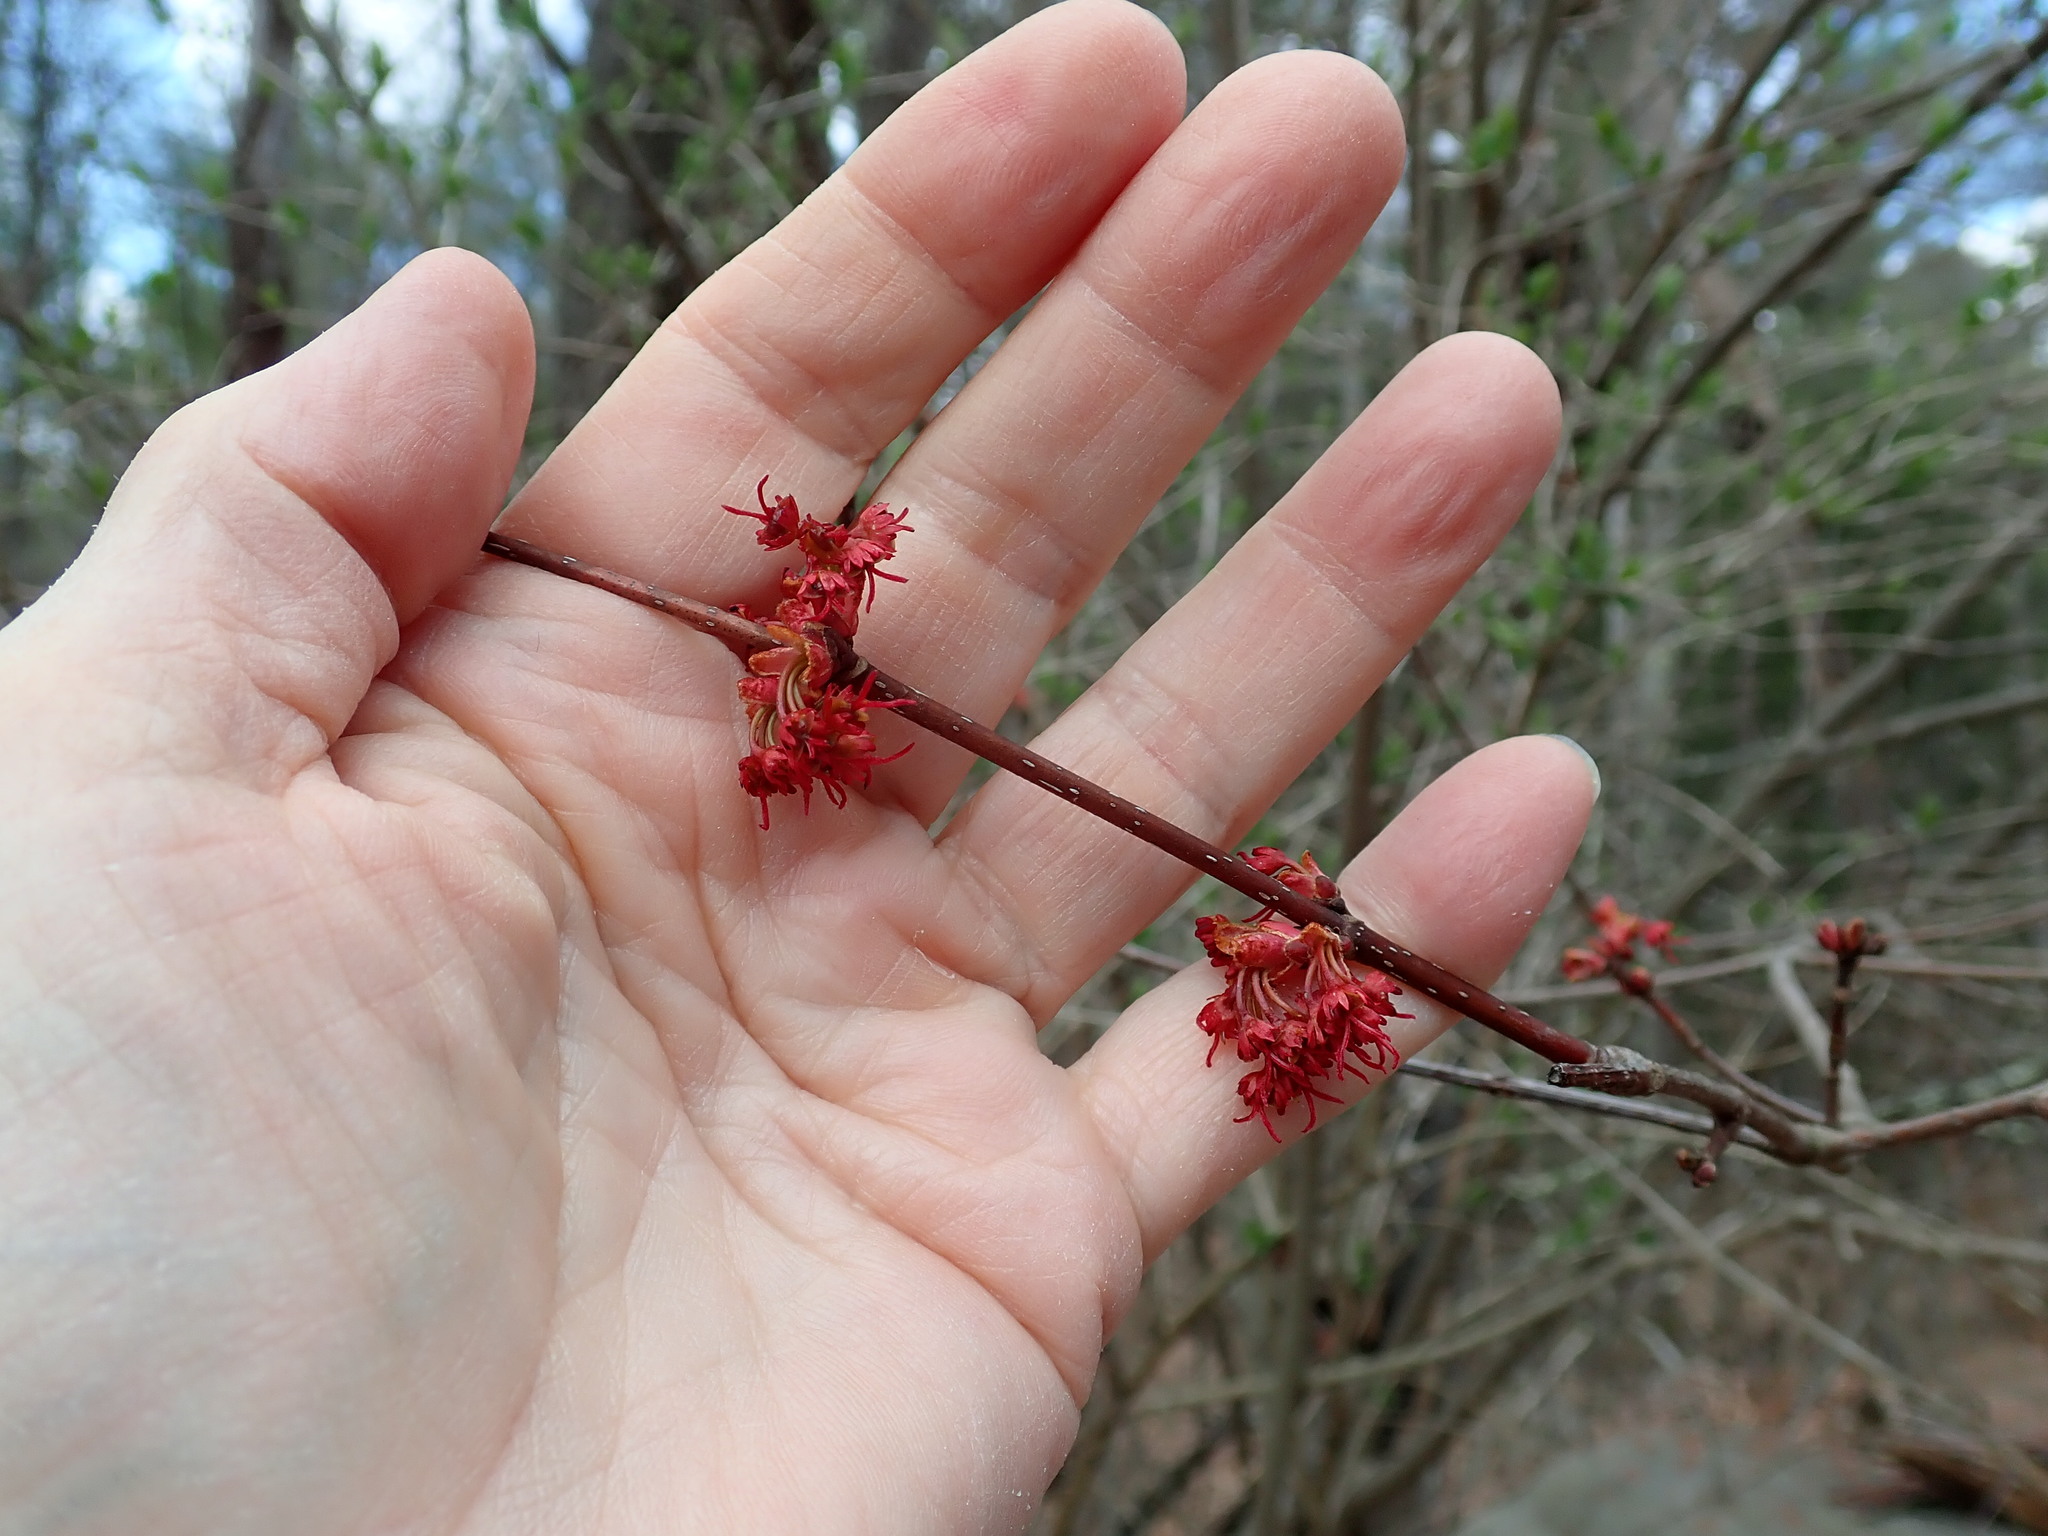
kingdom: Plantae
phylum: Tracheophyta
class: Magnoliopsida
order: Sapindales
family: Sapindaceae
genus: Acer
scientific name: Acer rubrum
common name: Red maple
